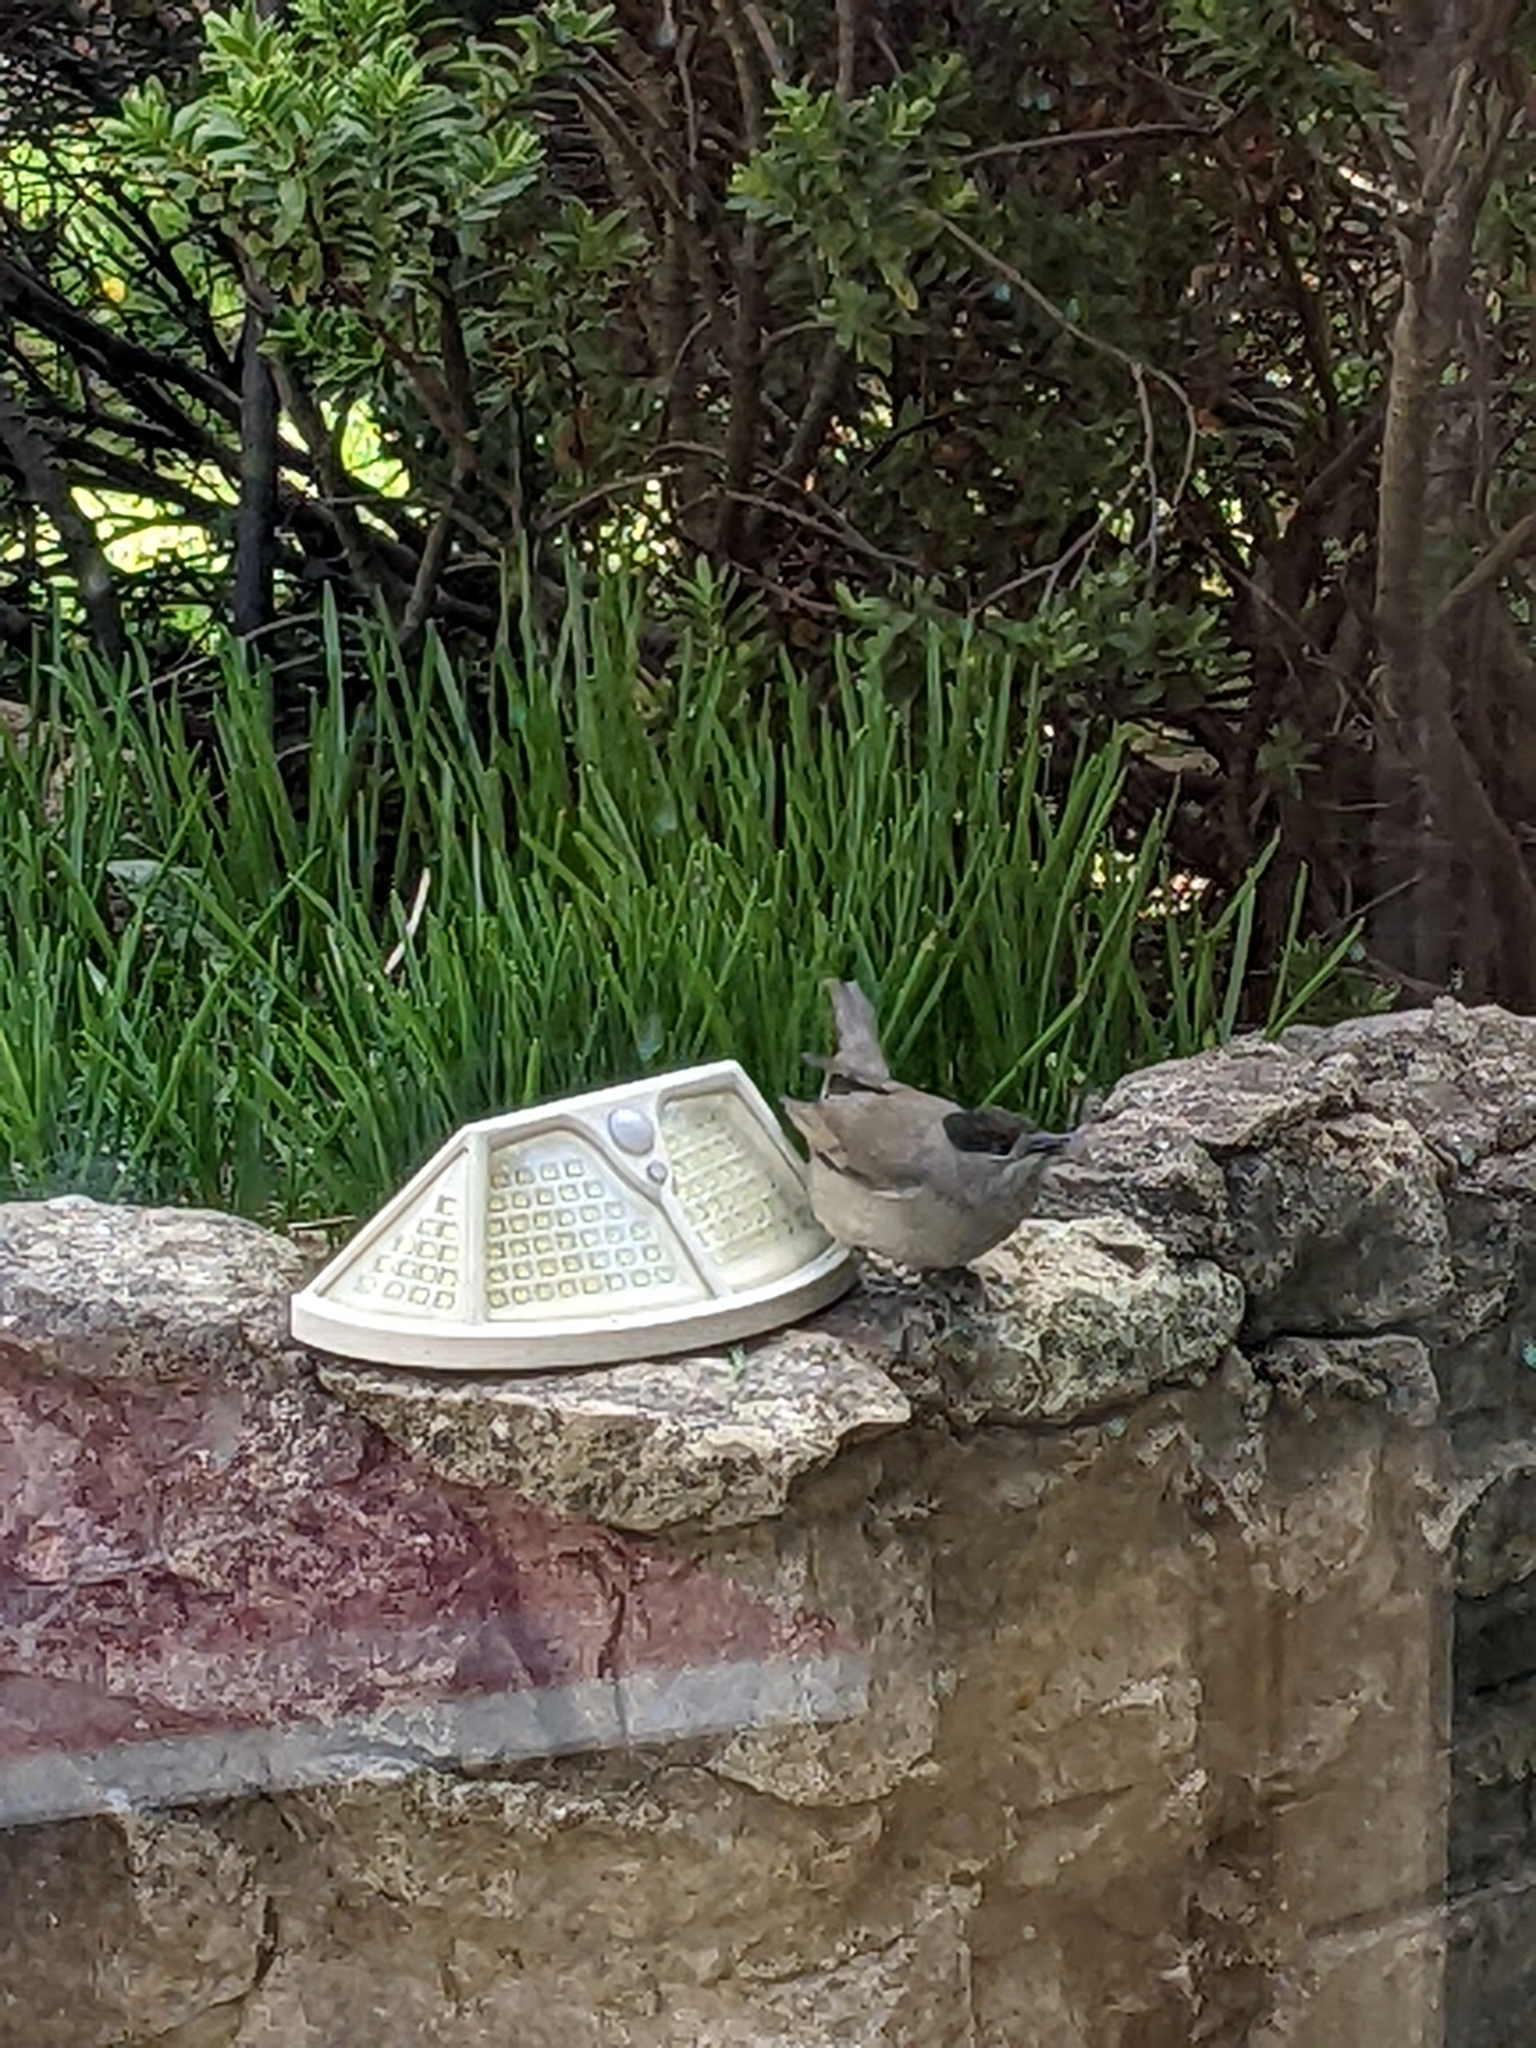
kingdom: Animalia
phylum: Chordata
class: Aves
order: Passeriformes
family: Sylviidae
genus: Sylvia
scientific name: Sylvia atricapilla
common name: Eurasian blackcap
